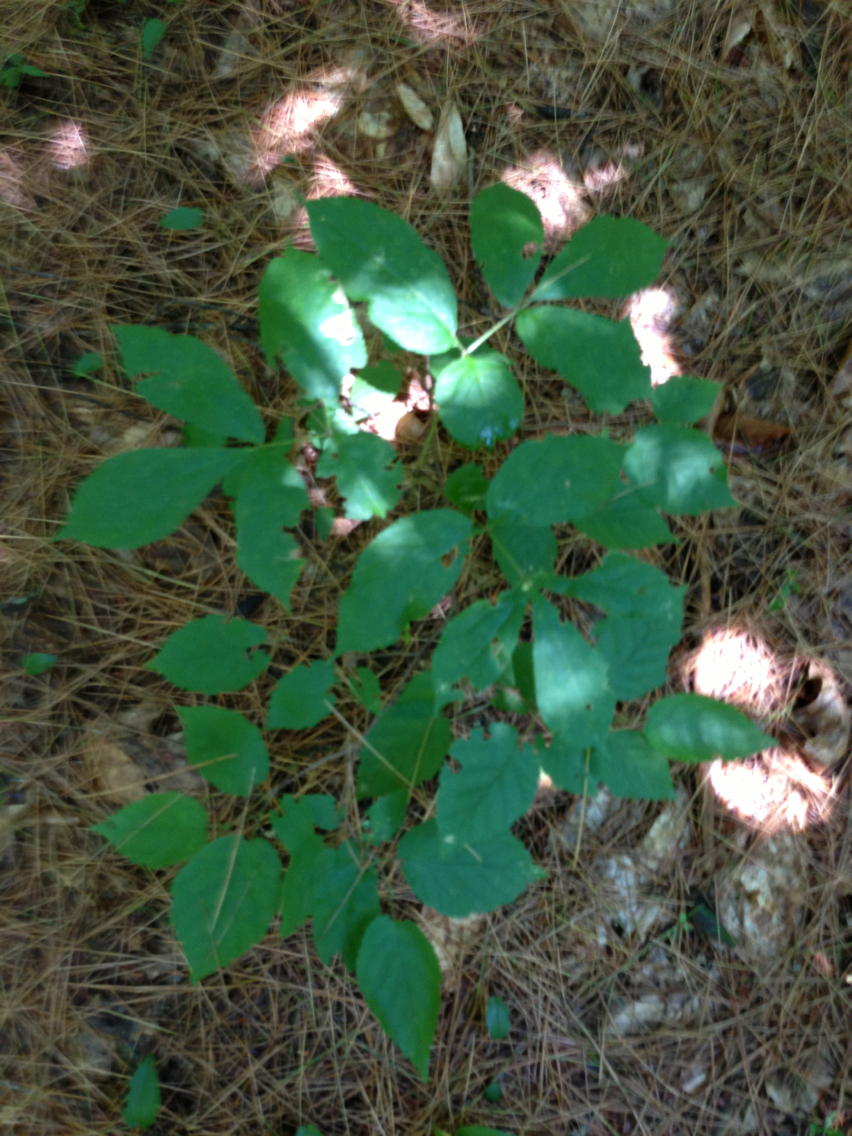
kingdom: Plantae
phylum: Tracheophyta
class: Magnoliopsida
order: Apiales
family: Araliaceae
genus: Aralia
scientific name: Aralia nudicaulis
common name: Wild sarsaparilla
